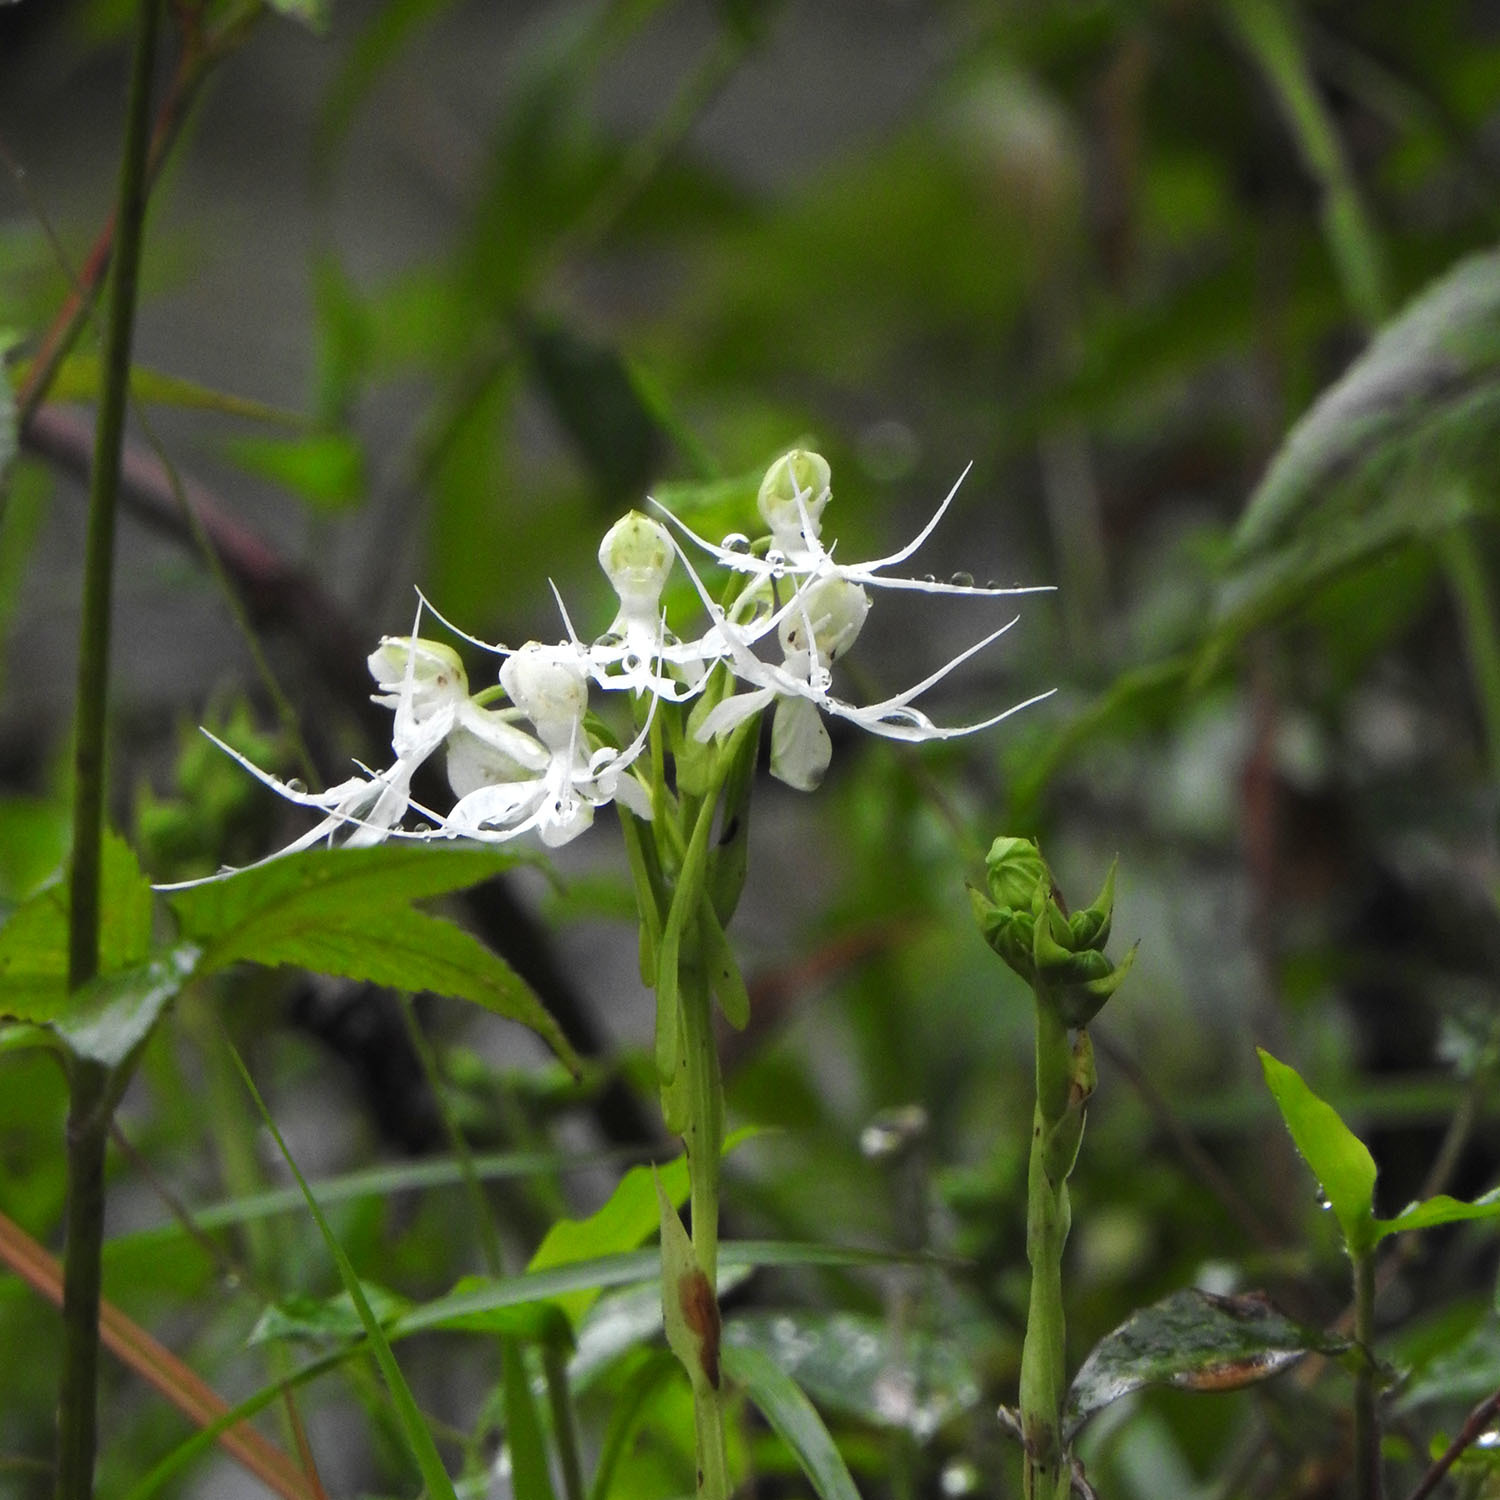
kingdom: Plantae
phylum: Tracheophyta
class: Liliopsida
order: Asparagales
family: Orchidaceae
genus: Habenaria
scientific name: Habenaria crinifera
